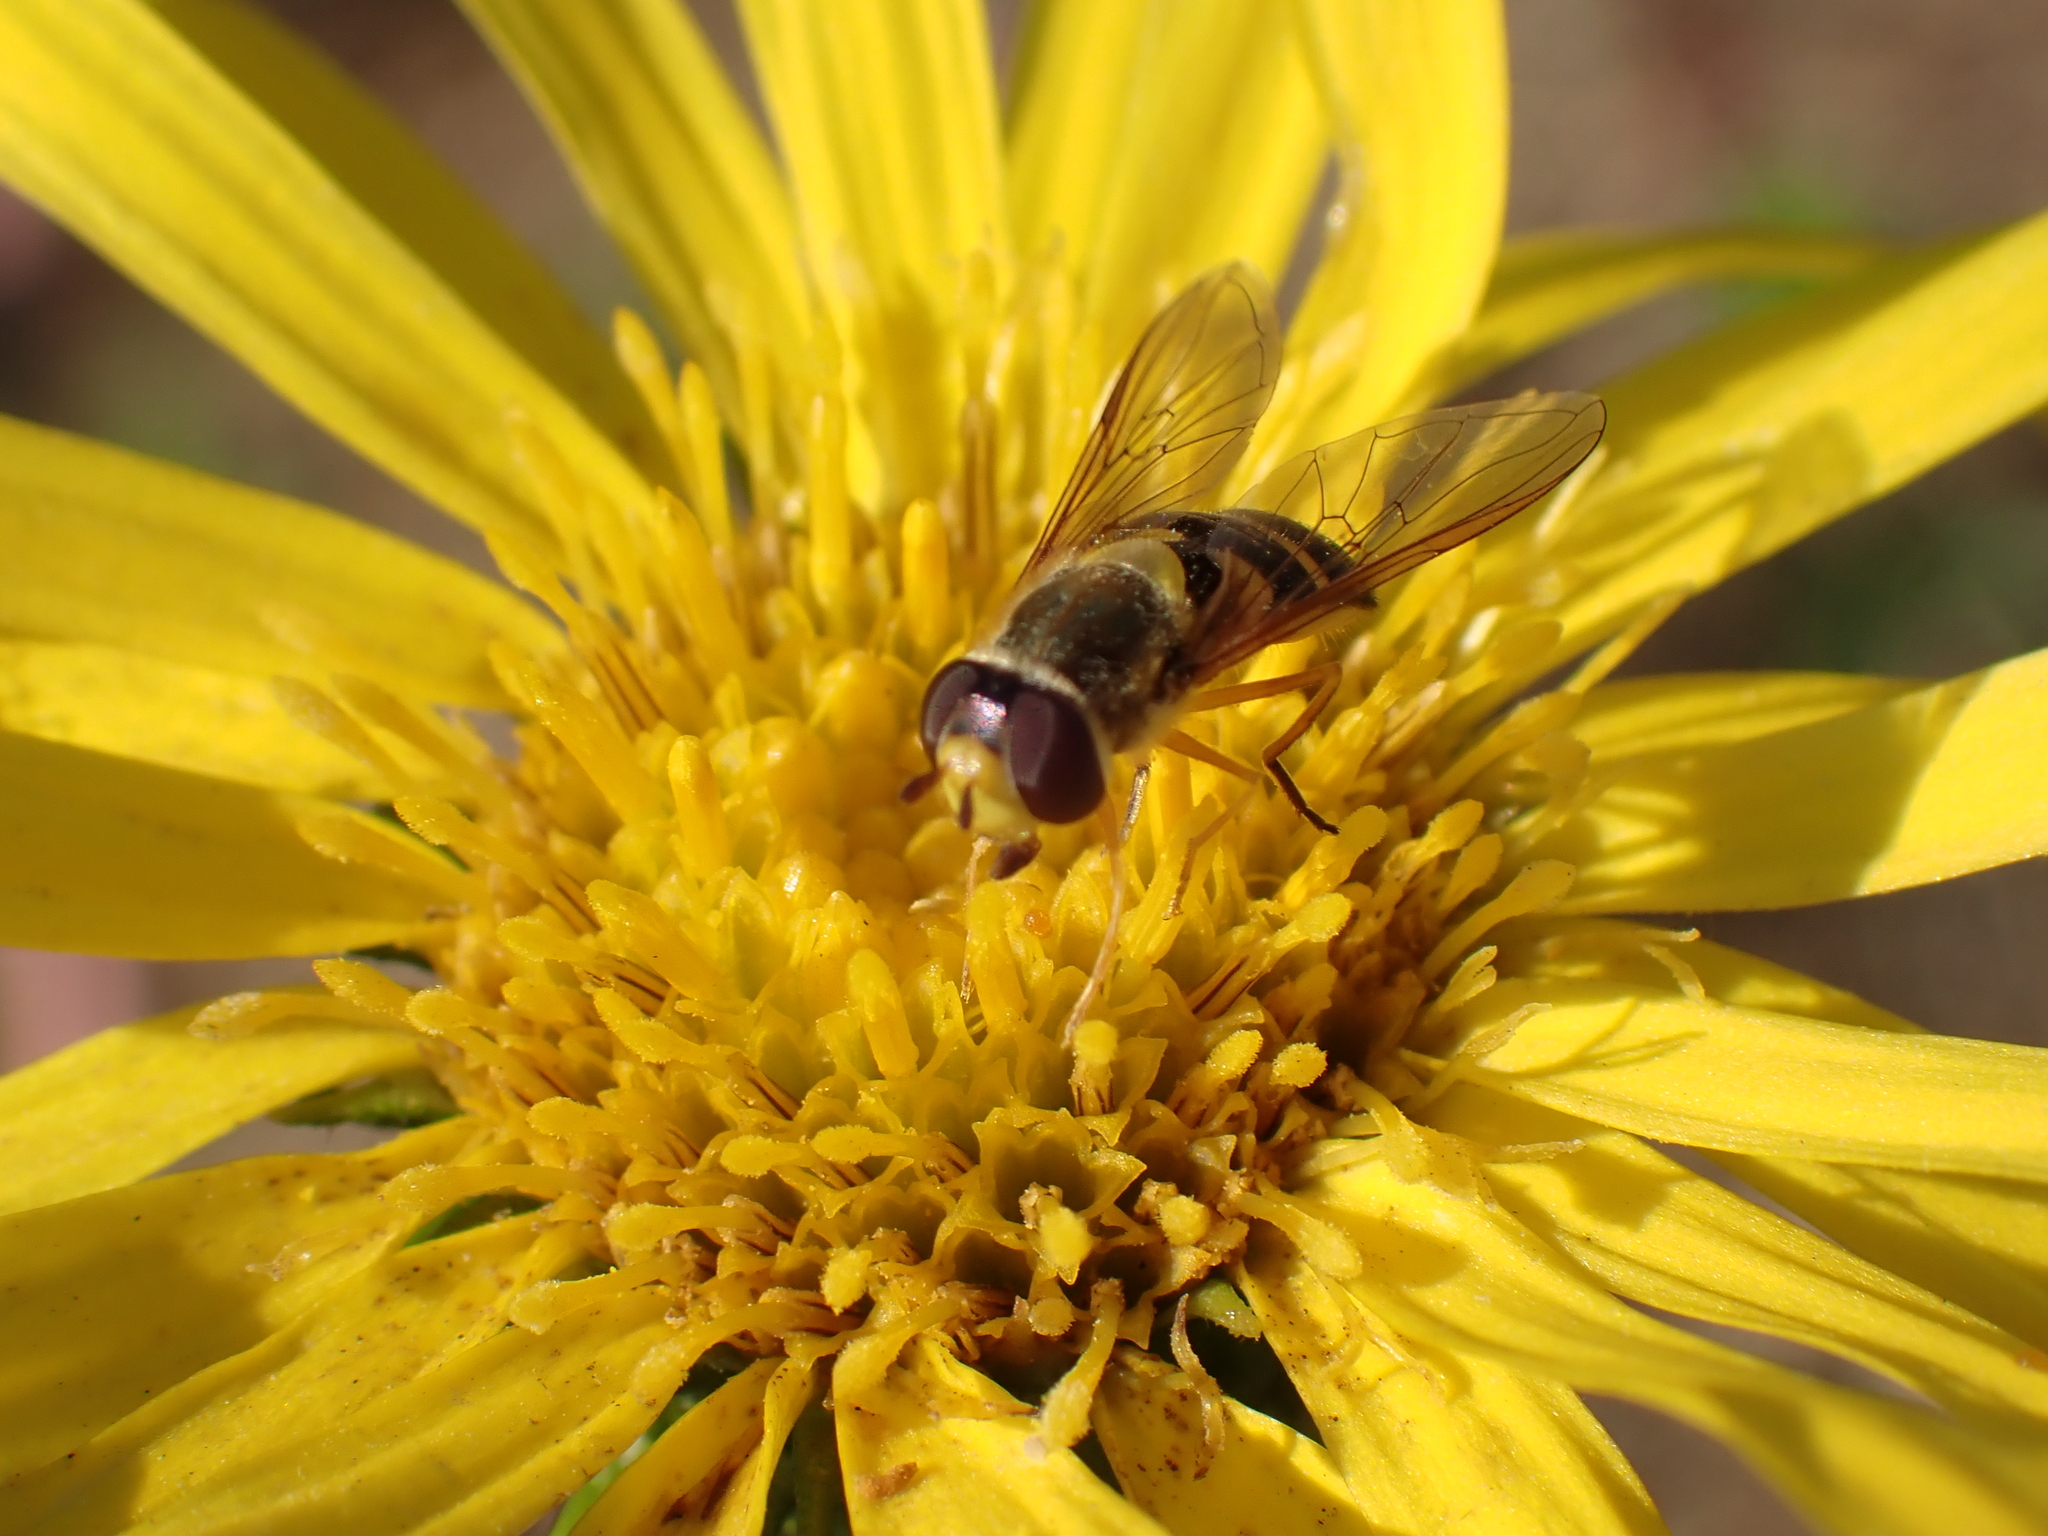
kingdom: Animalia
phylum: Arthropoda
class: Insecta
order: Diptera
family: Syrphidae
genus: Syrphus
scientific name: Syrphus opinator
